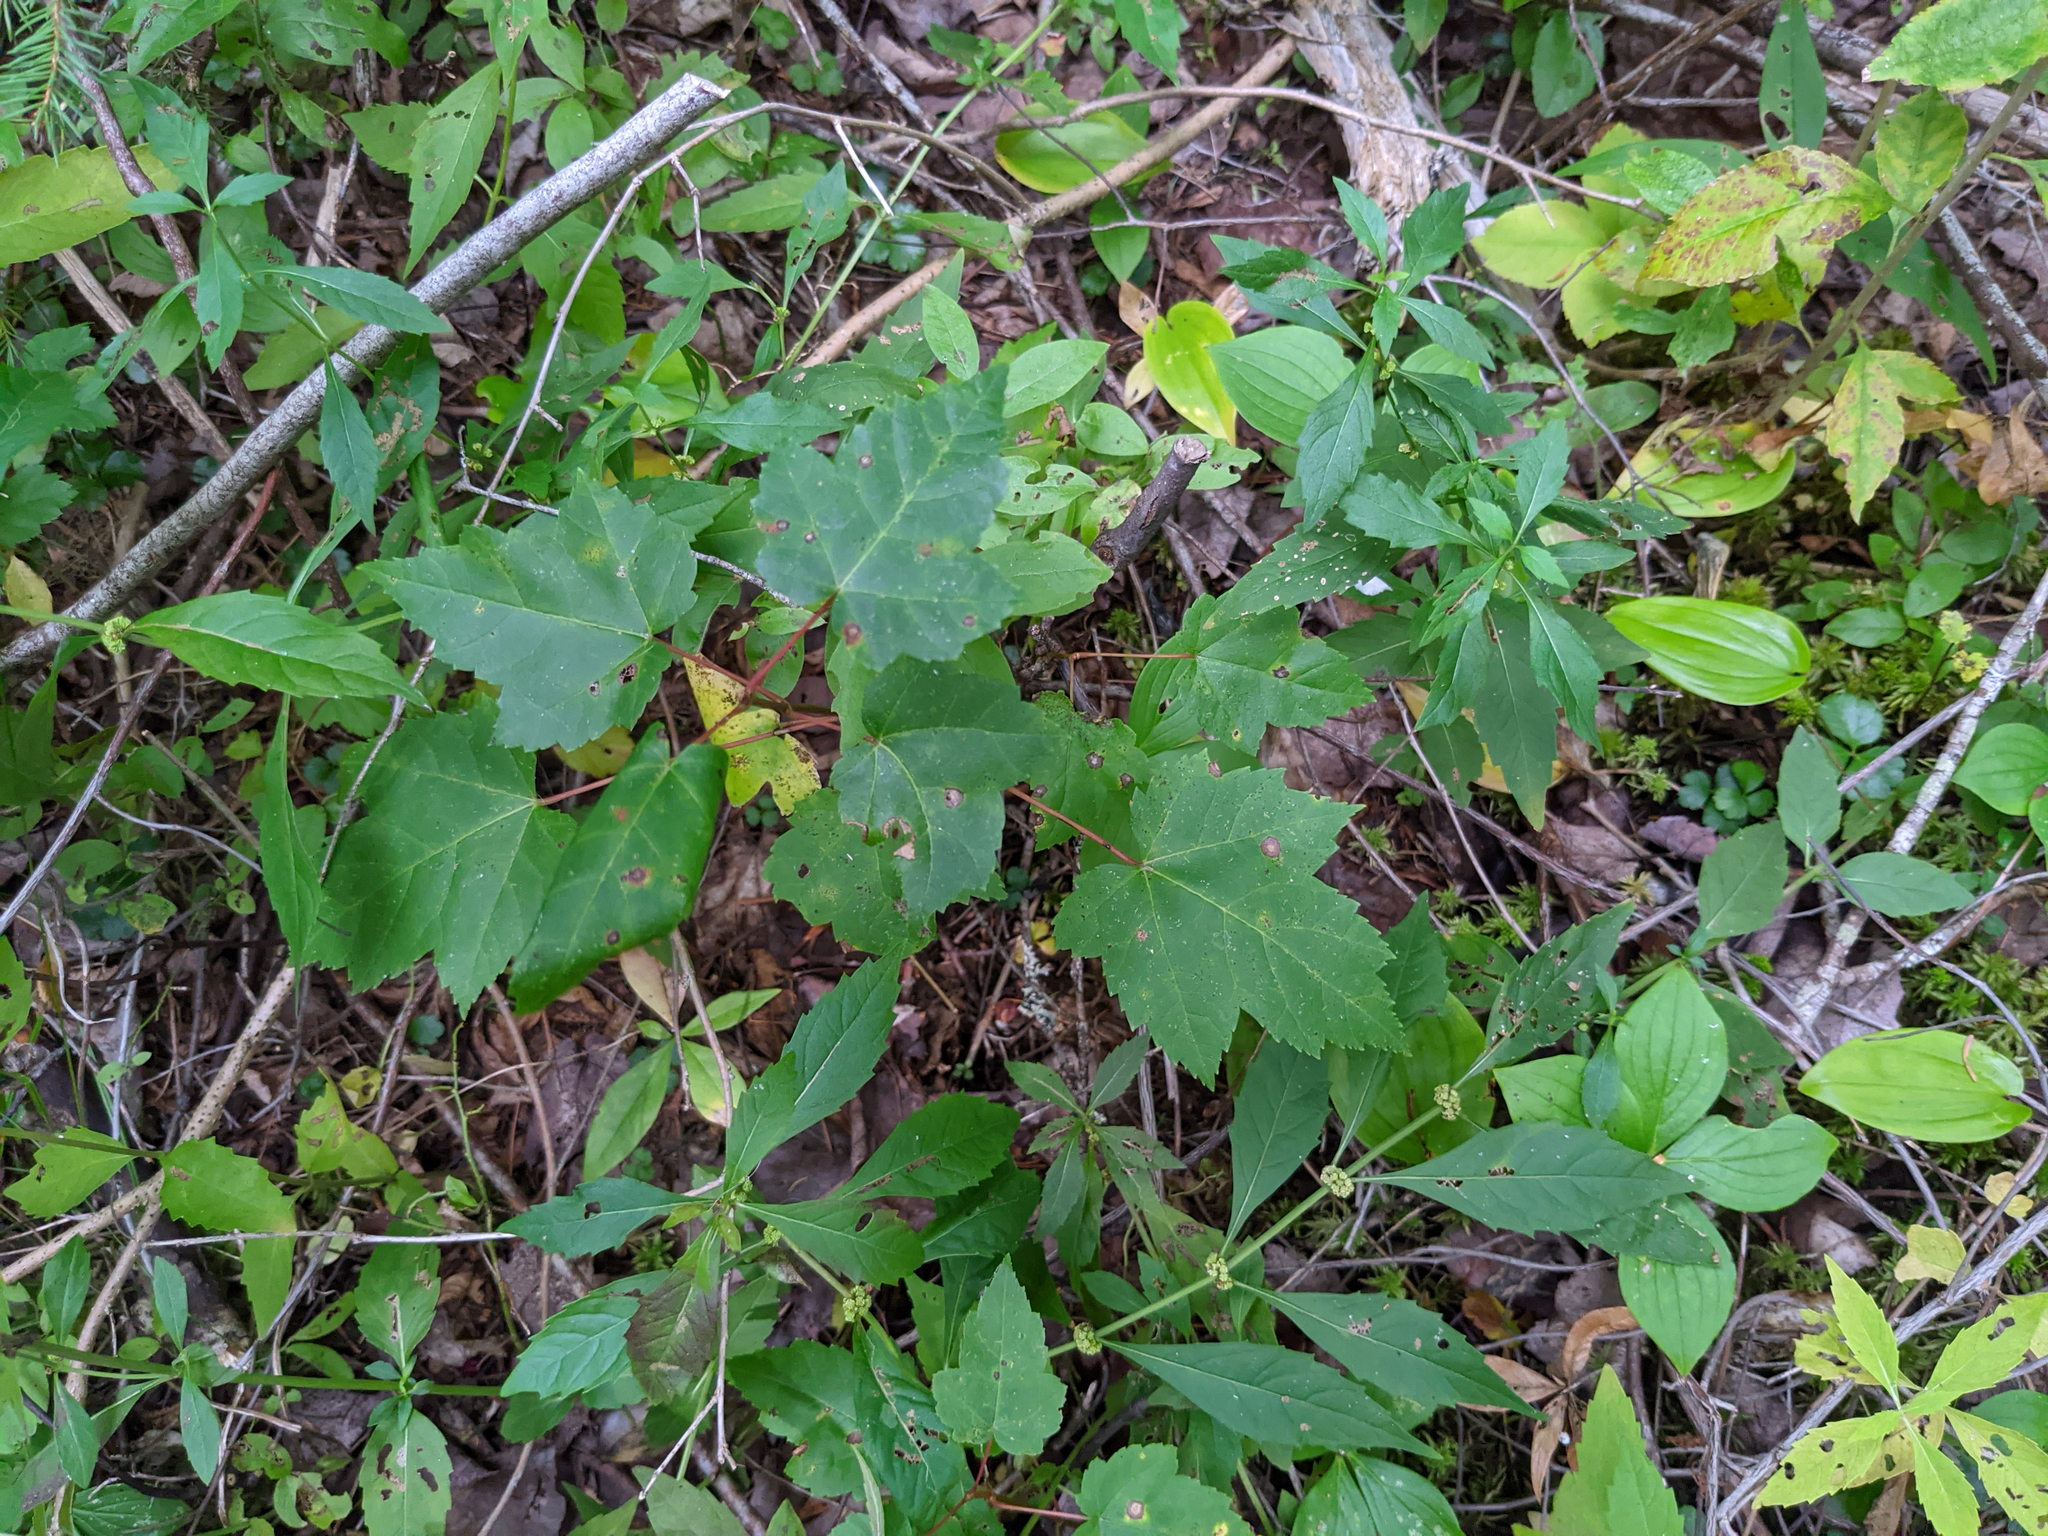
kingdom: Plantae
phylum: Tracheophyta
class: Magnoliopsida
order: Sapindales
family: Sapindaceae
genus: Acer
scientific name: Acer rubrum
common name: Red maple
